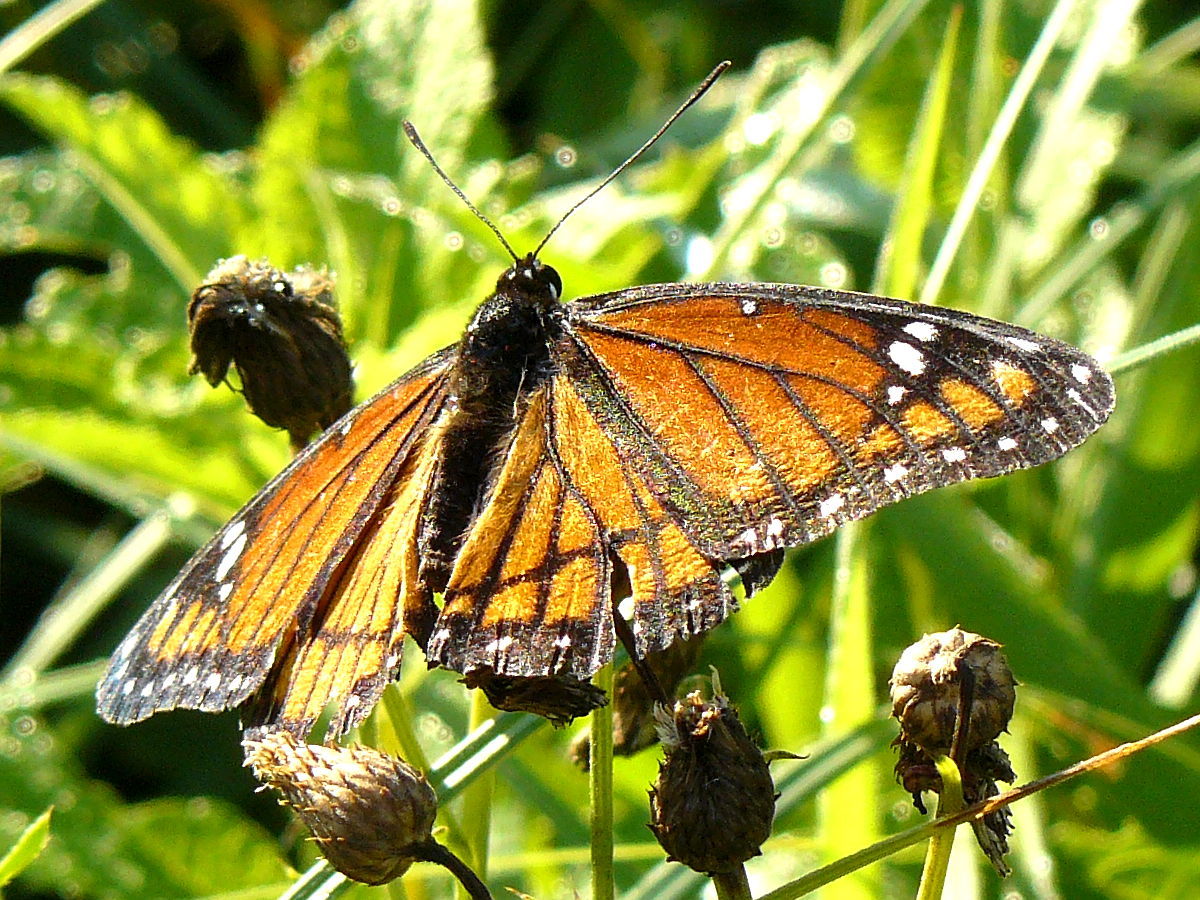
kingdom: Animalia
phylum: Arthropoda
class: Insecta
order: Lepidoptera
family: Nymphalidae
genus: Limenitis
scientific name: Limenitis archippus
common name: Viceroy
